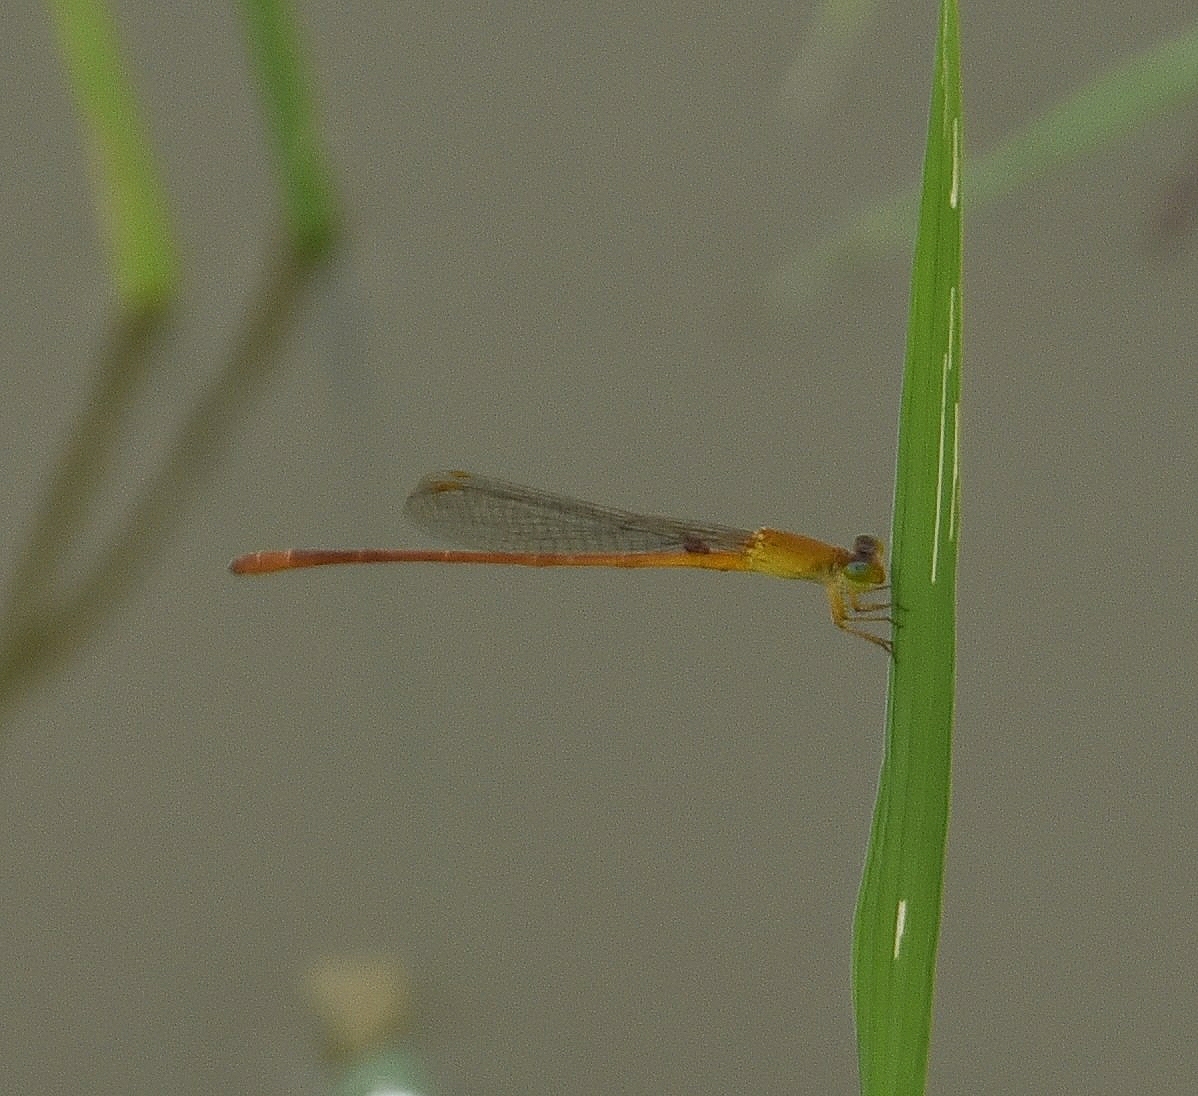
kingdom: Animalia
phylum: Arthropoda
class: Insecta
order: Odonata
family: Coenagrionidae
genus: Ceriagrion
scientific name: Ceriagrion rubiae
